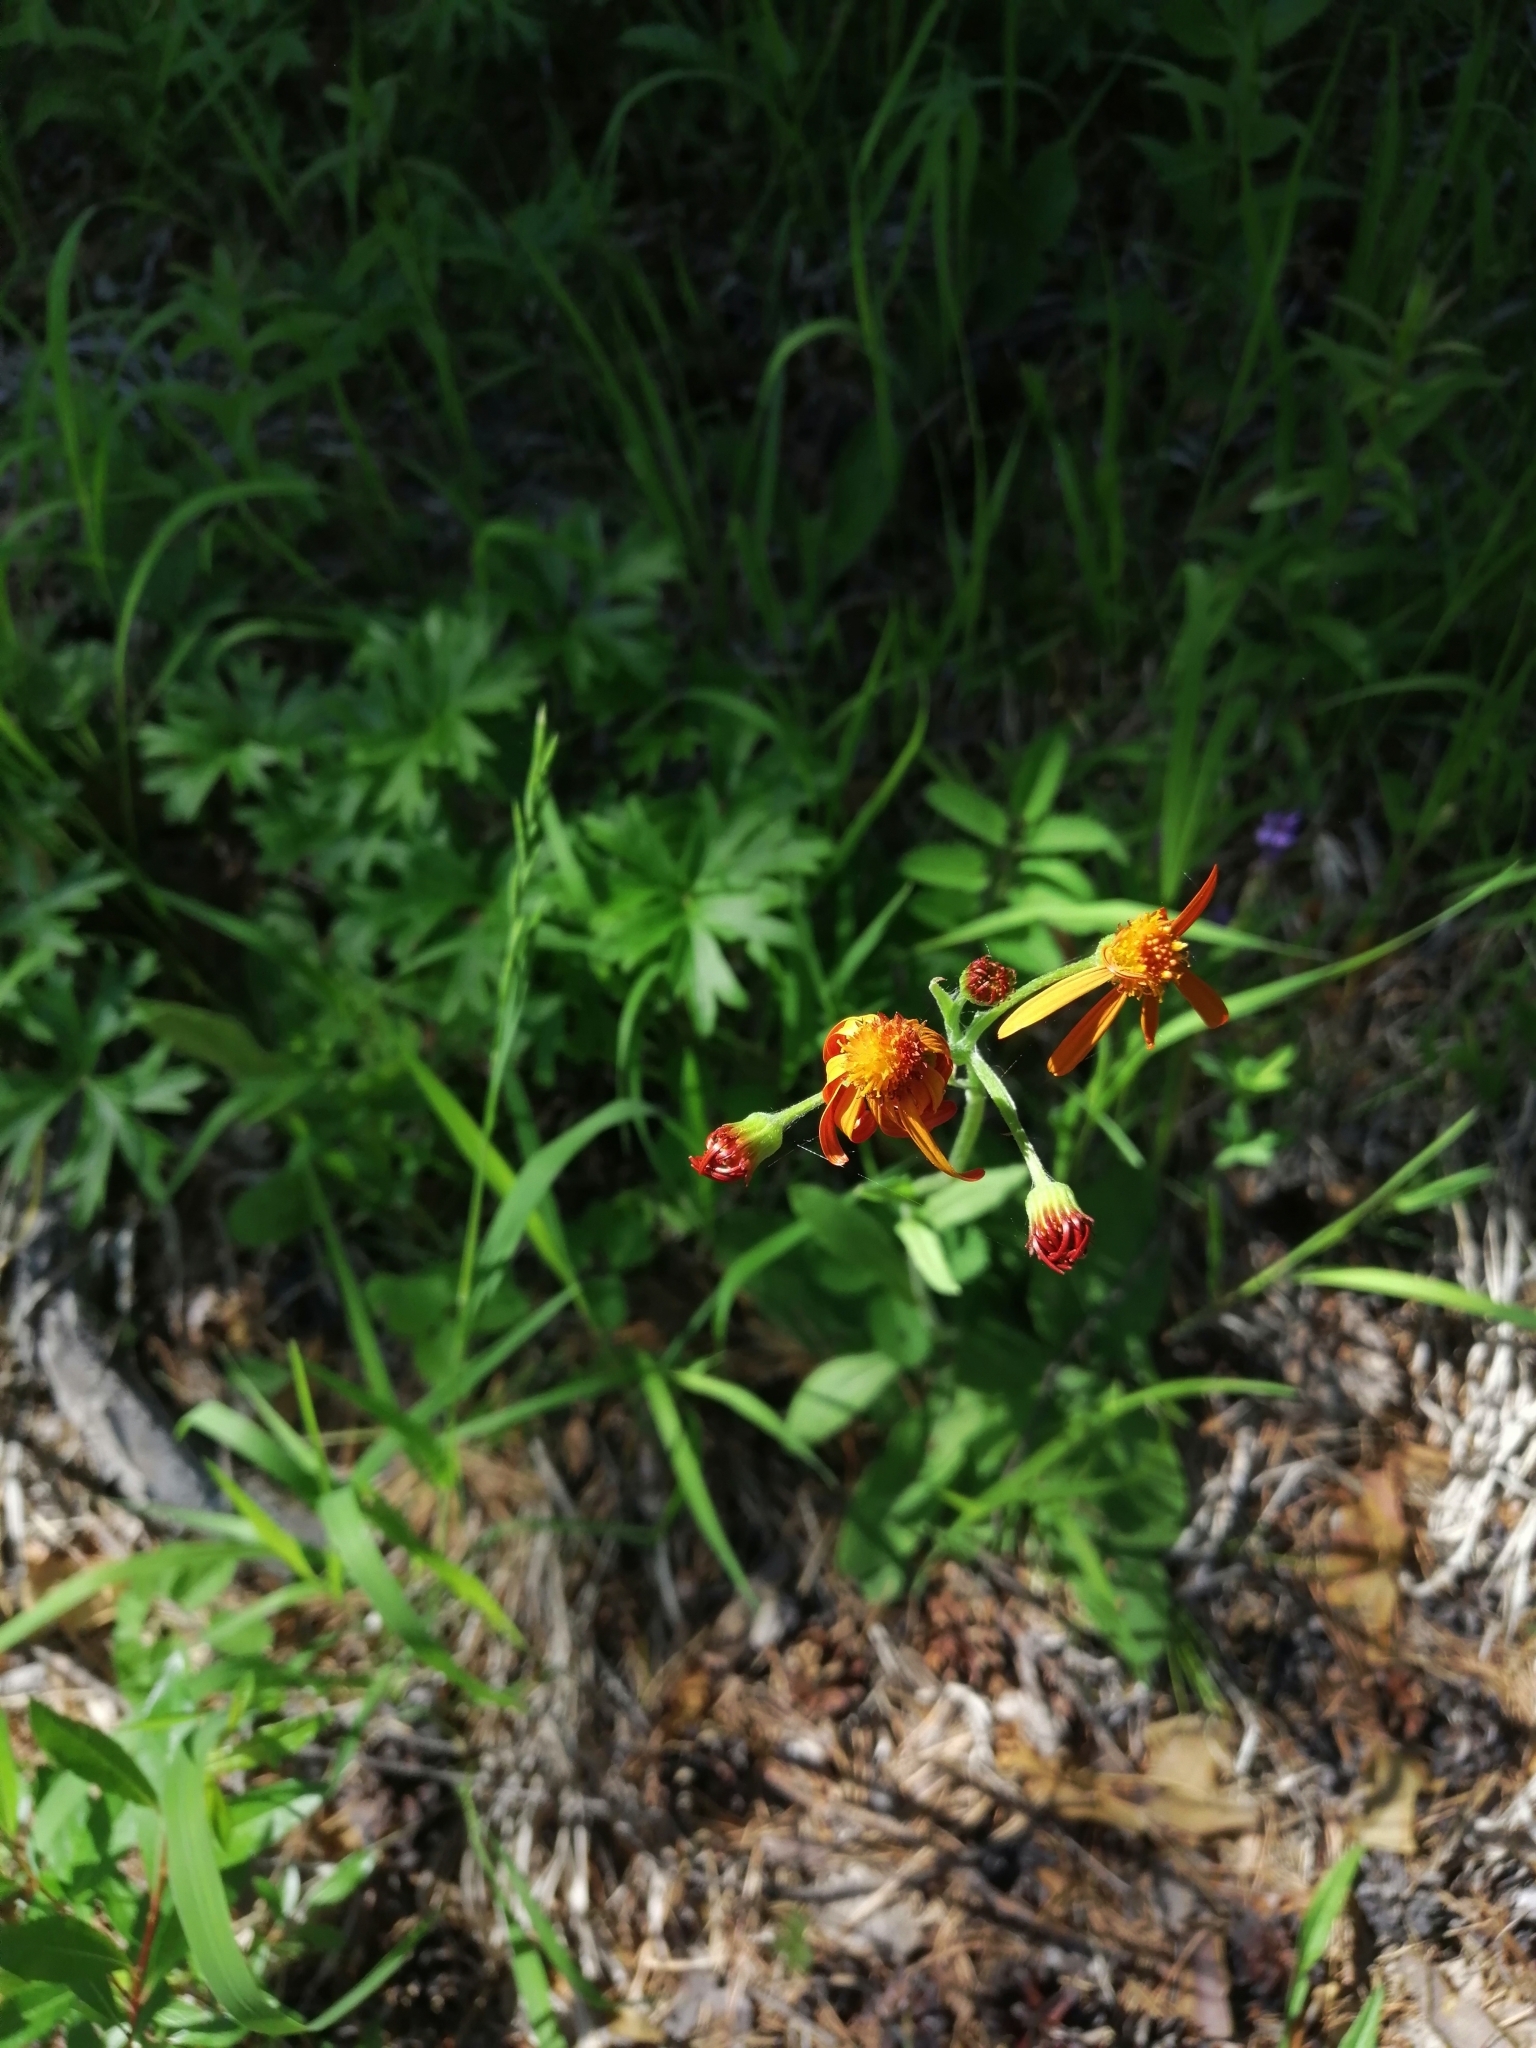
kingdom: Plantae
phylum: Tracheophyta
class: Magnoliopsida
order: Asterales
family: Asteraceae
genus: Tephroseris
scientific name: Tephroseris integrifolia
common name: Field fleawort
